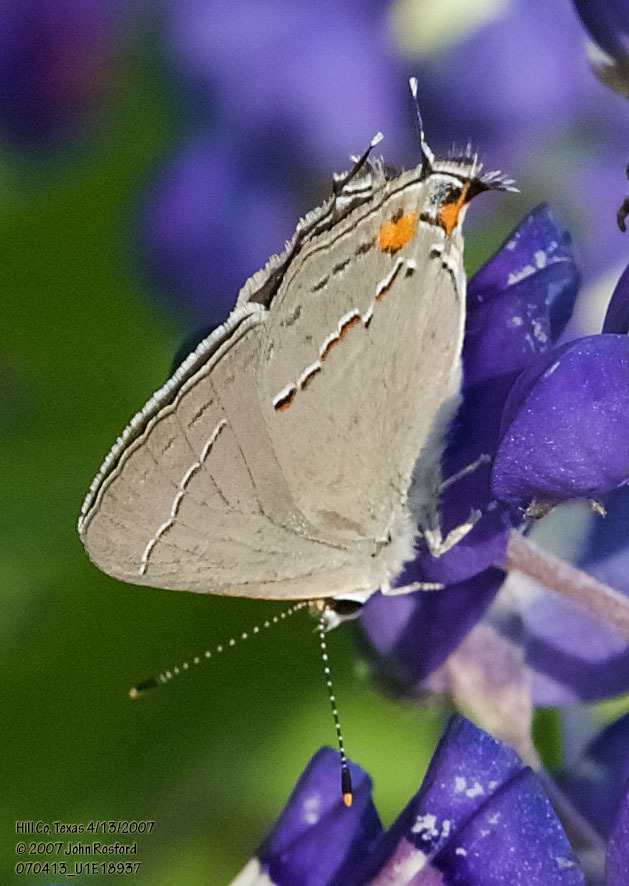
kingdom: Animalia
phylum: Arthropoda
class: Insecta
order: Lepidoptera
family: Lycaenidae
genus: Strymon
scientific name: Strymon melinus
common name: Gray hairstreak
